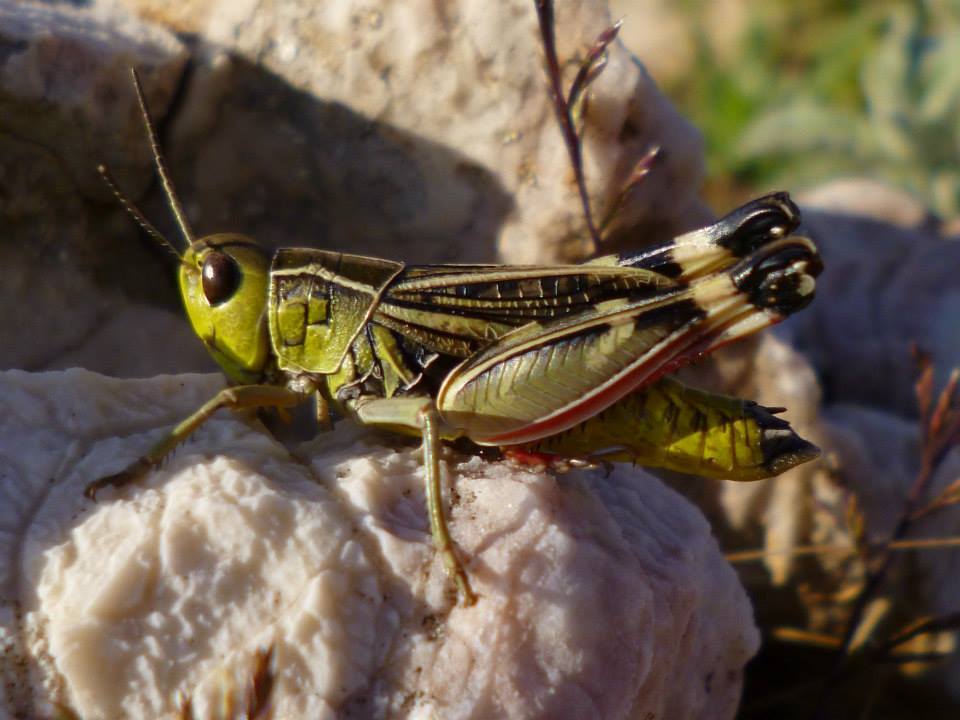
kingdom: Animalia
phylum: Arthropoda
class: Insecta
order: Orthoptera
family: Acrididae
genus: Arcyptera
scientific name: Arcyptera brevipennis
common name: Western banded grasshopper
